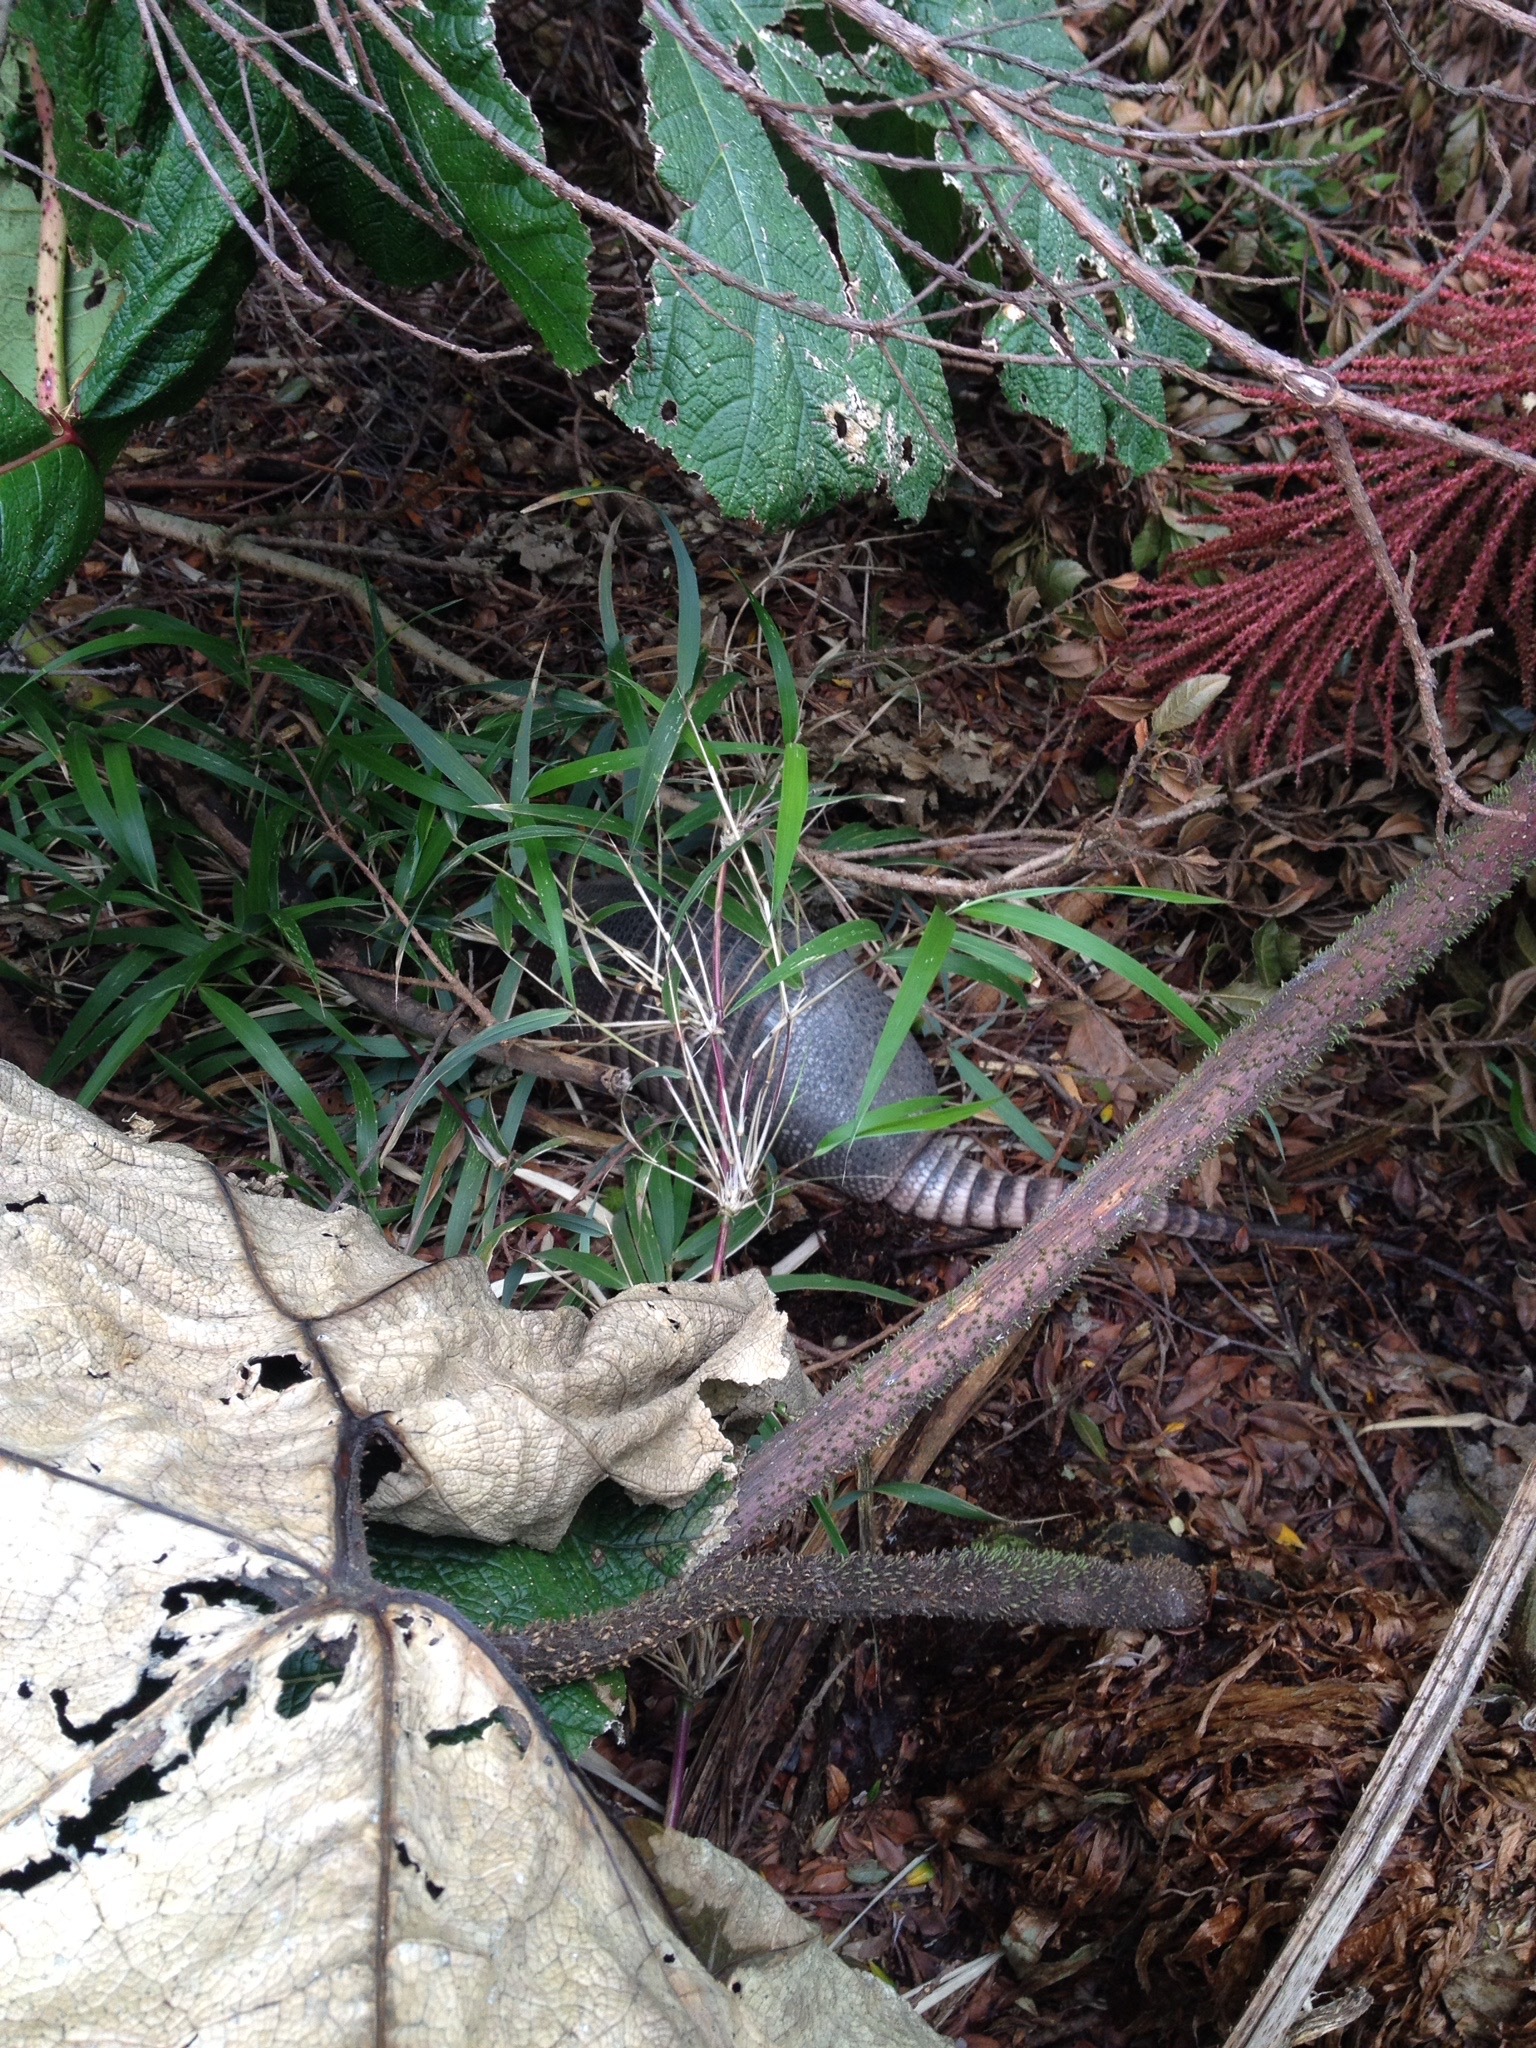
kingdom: Animalia
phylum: Chordata
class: Mammalia
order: Cingulata
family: Dasypodidae
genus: Dasypus
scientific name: Dasypus novemcinctus
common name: Nine-banded armadillo
